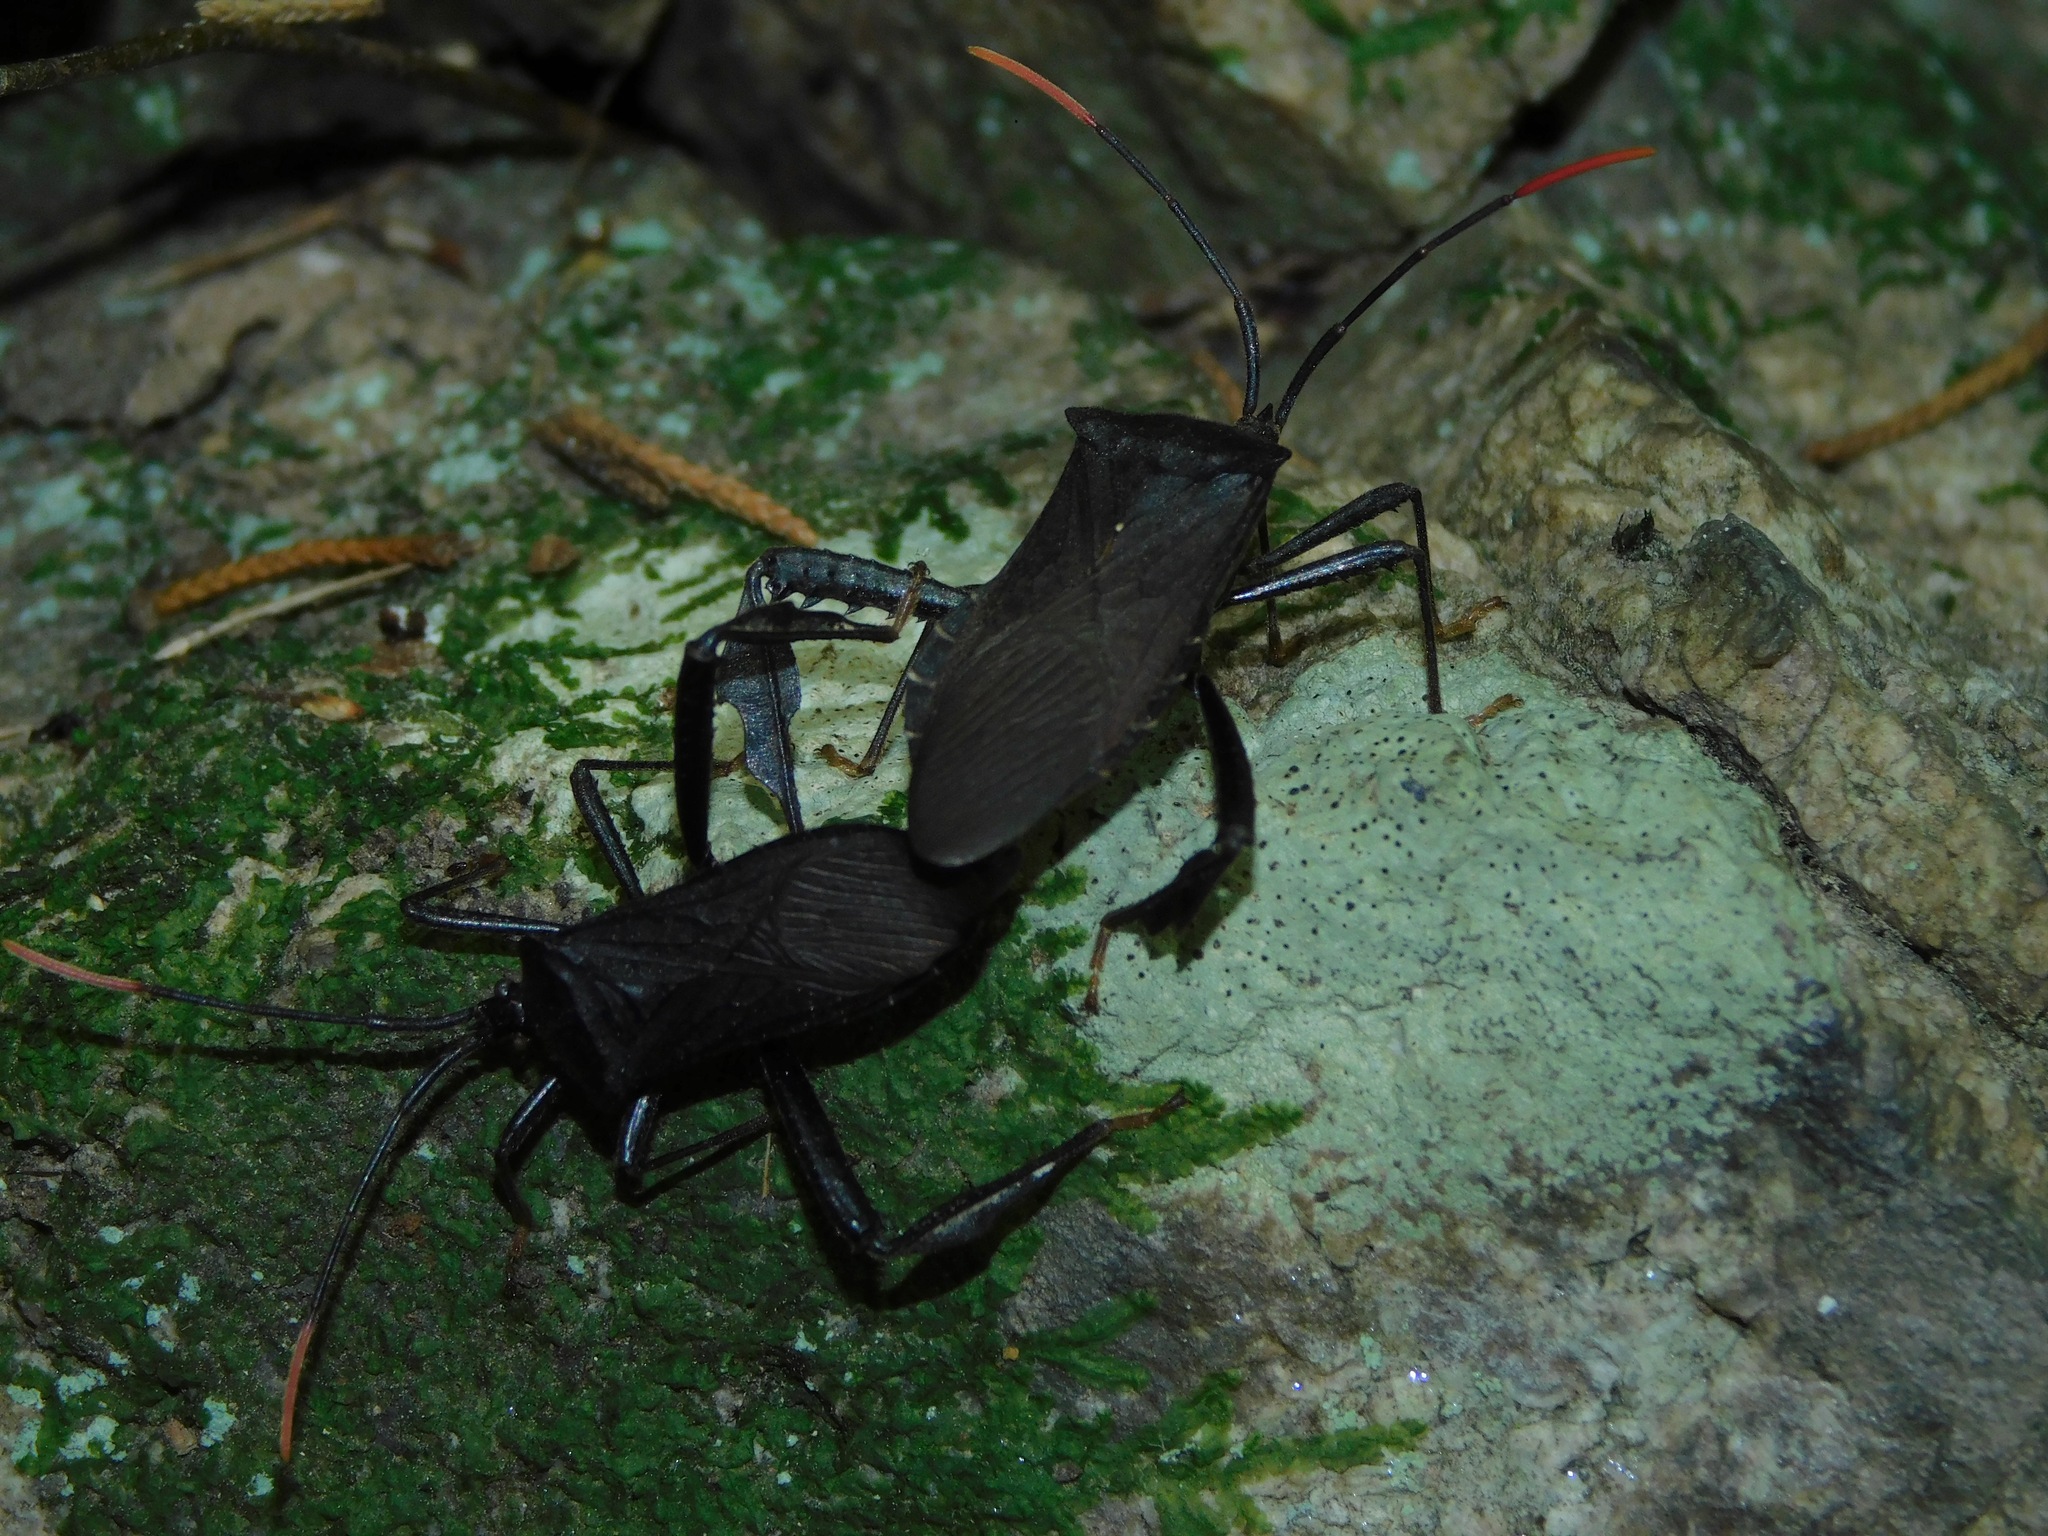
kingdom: Animalia
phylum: Arthropoda
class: Insecta
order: Hemiptera
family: Coreidae
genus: Acanthocephala
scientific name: Acanthocephala terminalis
